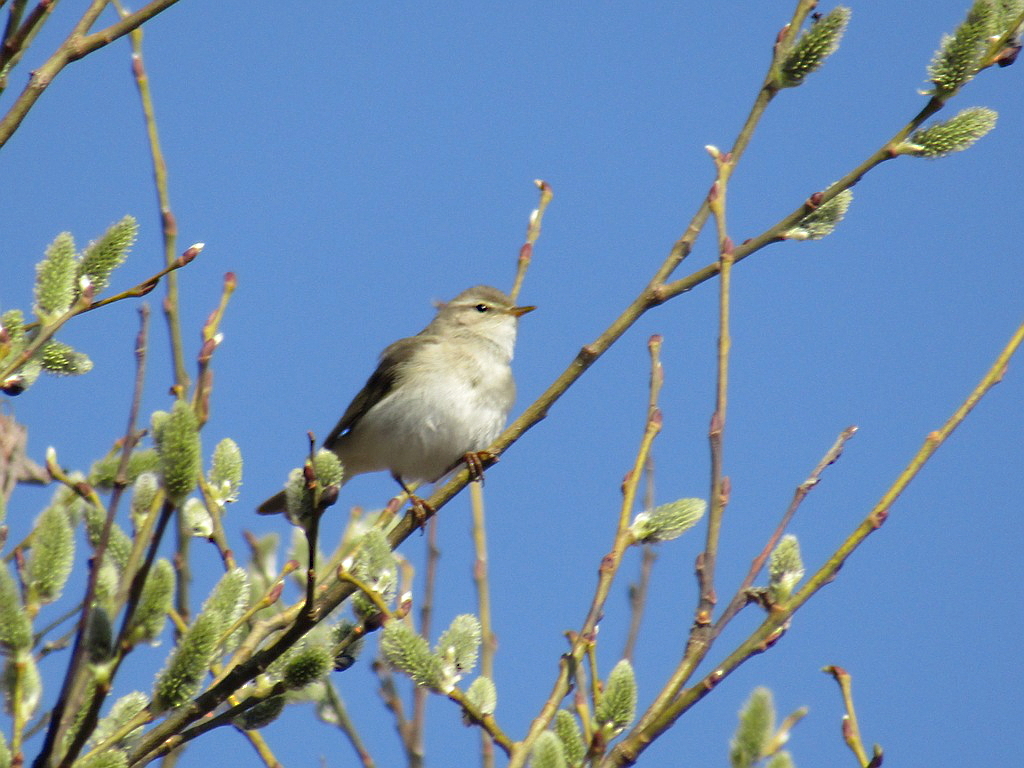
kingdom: Animalia
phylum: Chordata
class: Aves
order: Passeriformes
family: Phylloscopidae
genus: Phylloscopus
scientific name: Phylloscopus trochilus
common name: Willow warbler
